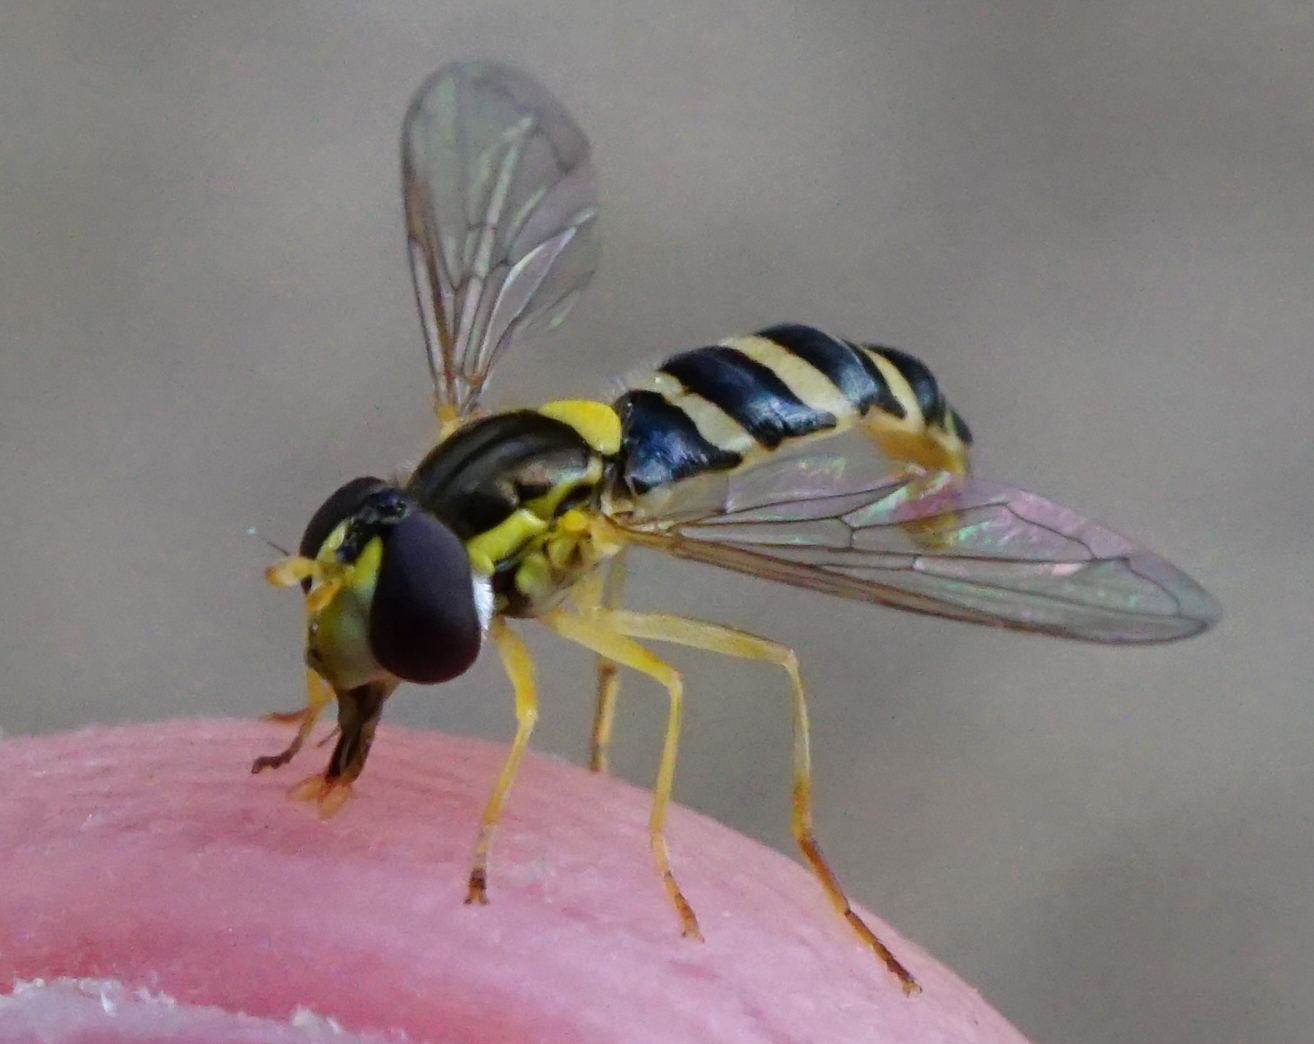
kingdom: Animalia
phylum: Arthropoda
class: Insecta
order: Diptera
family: Syrphidae
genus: Sphaerophoria
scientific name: Sphaerophoria
